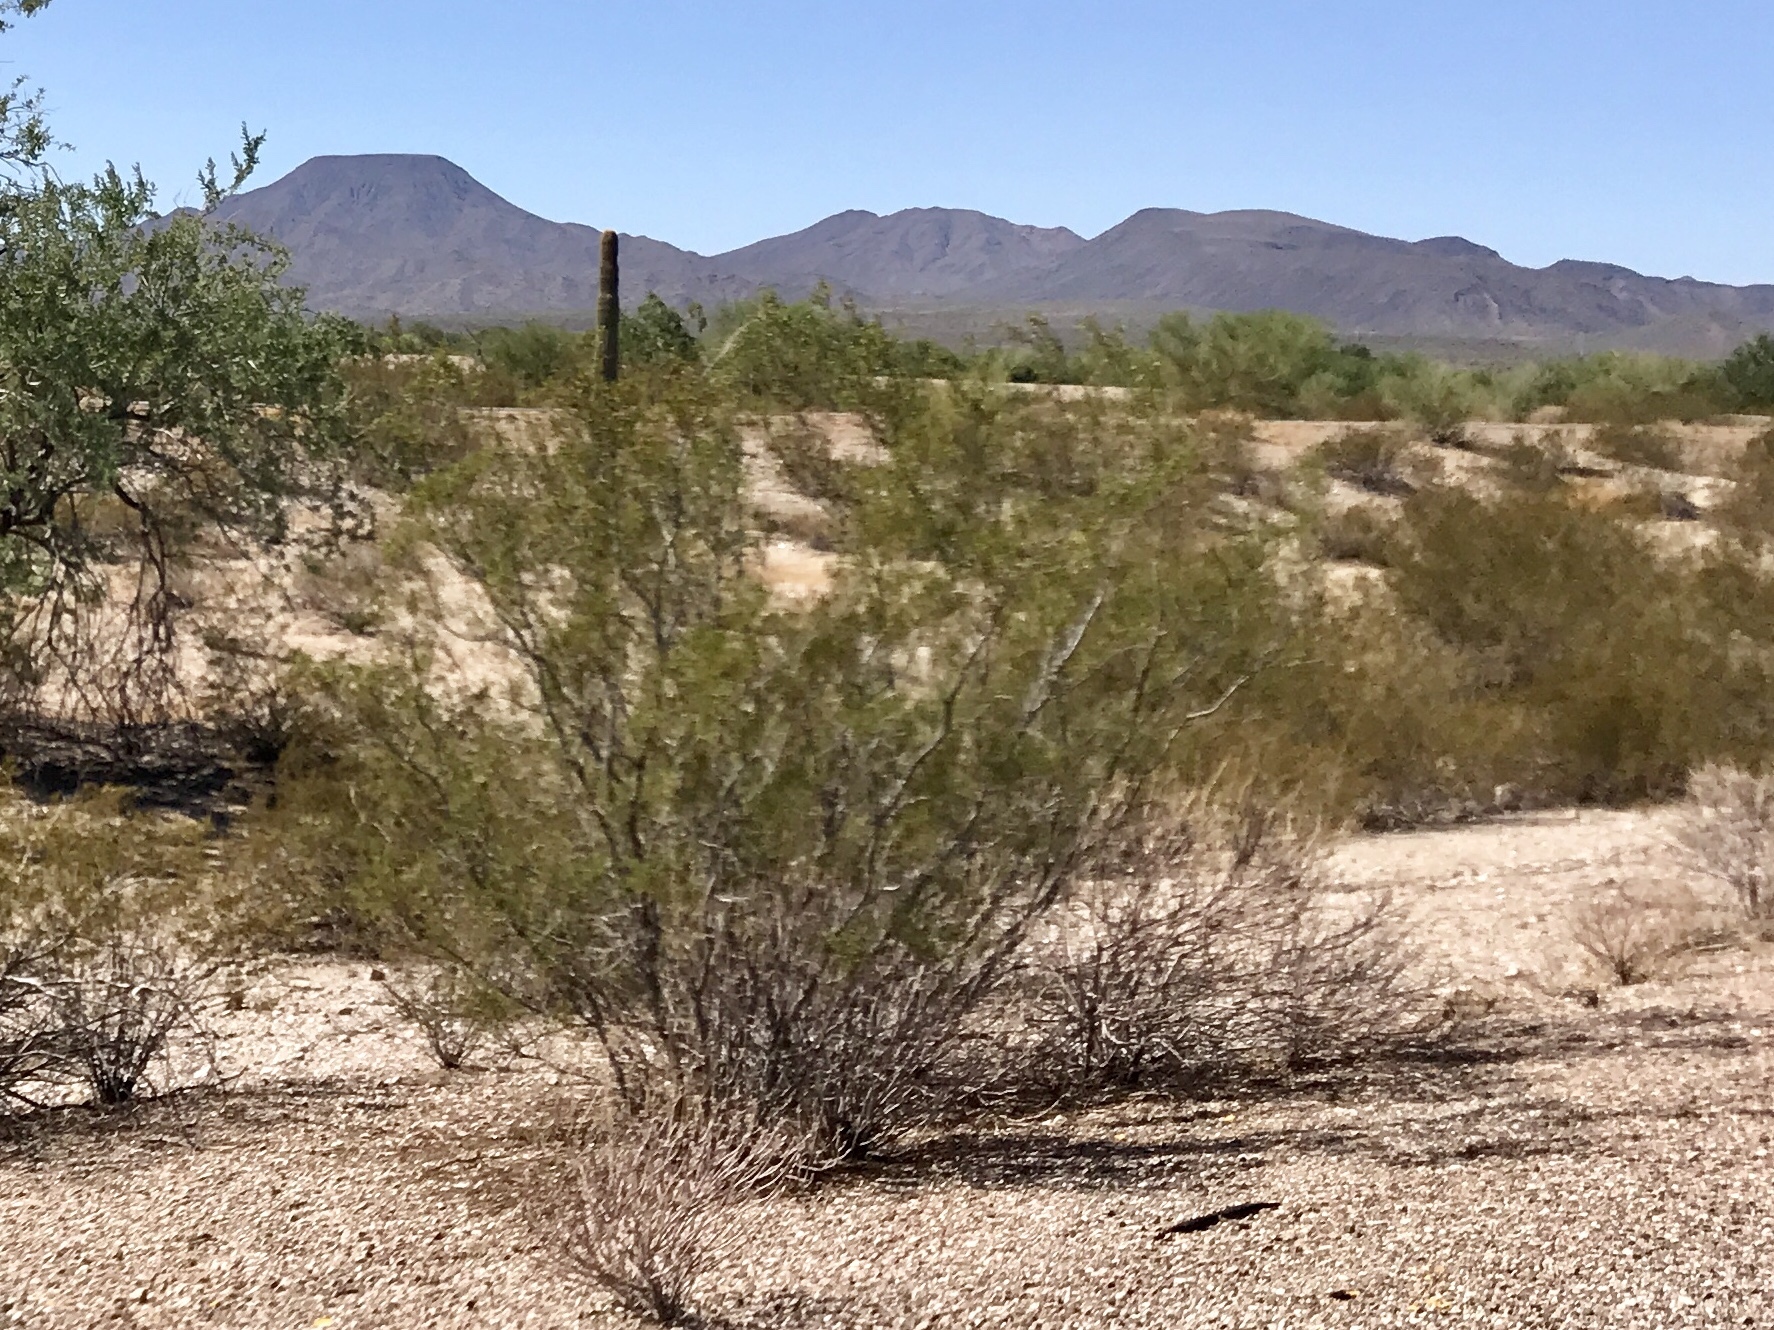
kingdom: Plantae
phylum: Tracheophyta
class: Magnoliopsida
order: Zygophyllales
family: Zygophyllaceae
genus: Larrea
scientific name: Larrea tridentata
